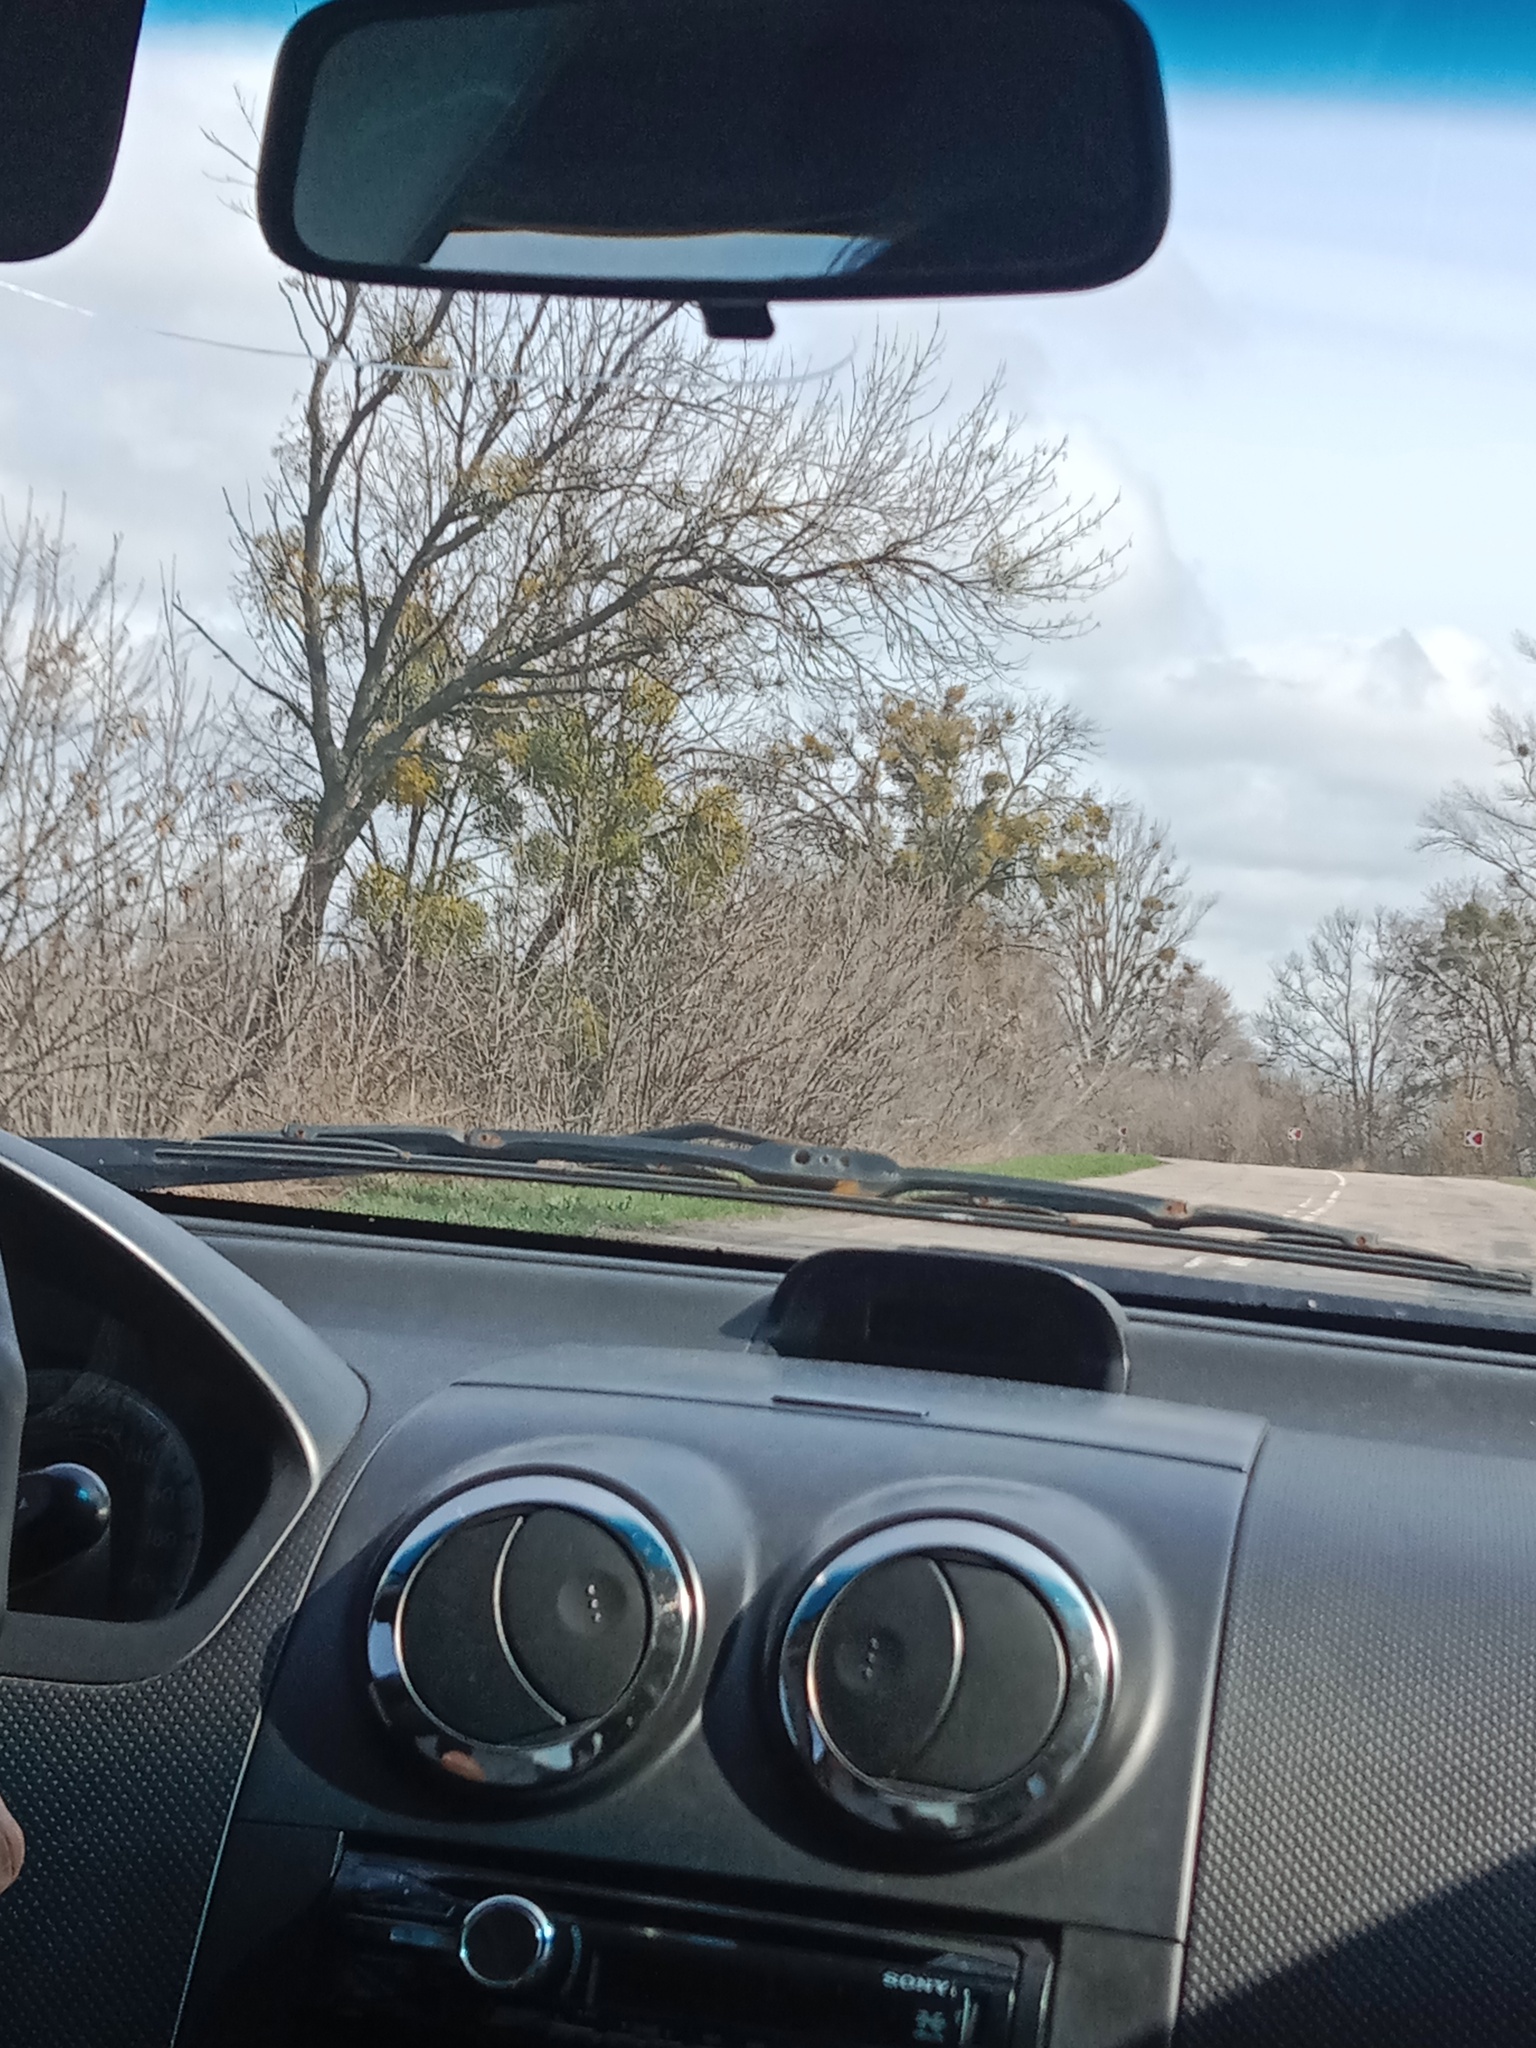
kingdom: Plantae
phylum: Tracheophyta
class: Magnoliopsida
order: Santalales
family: Viscaceae
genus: Viscum
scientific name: Viscum album
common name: Mistletoe
